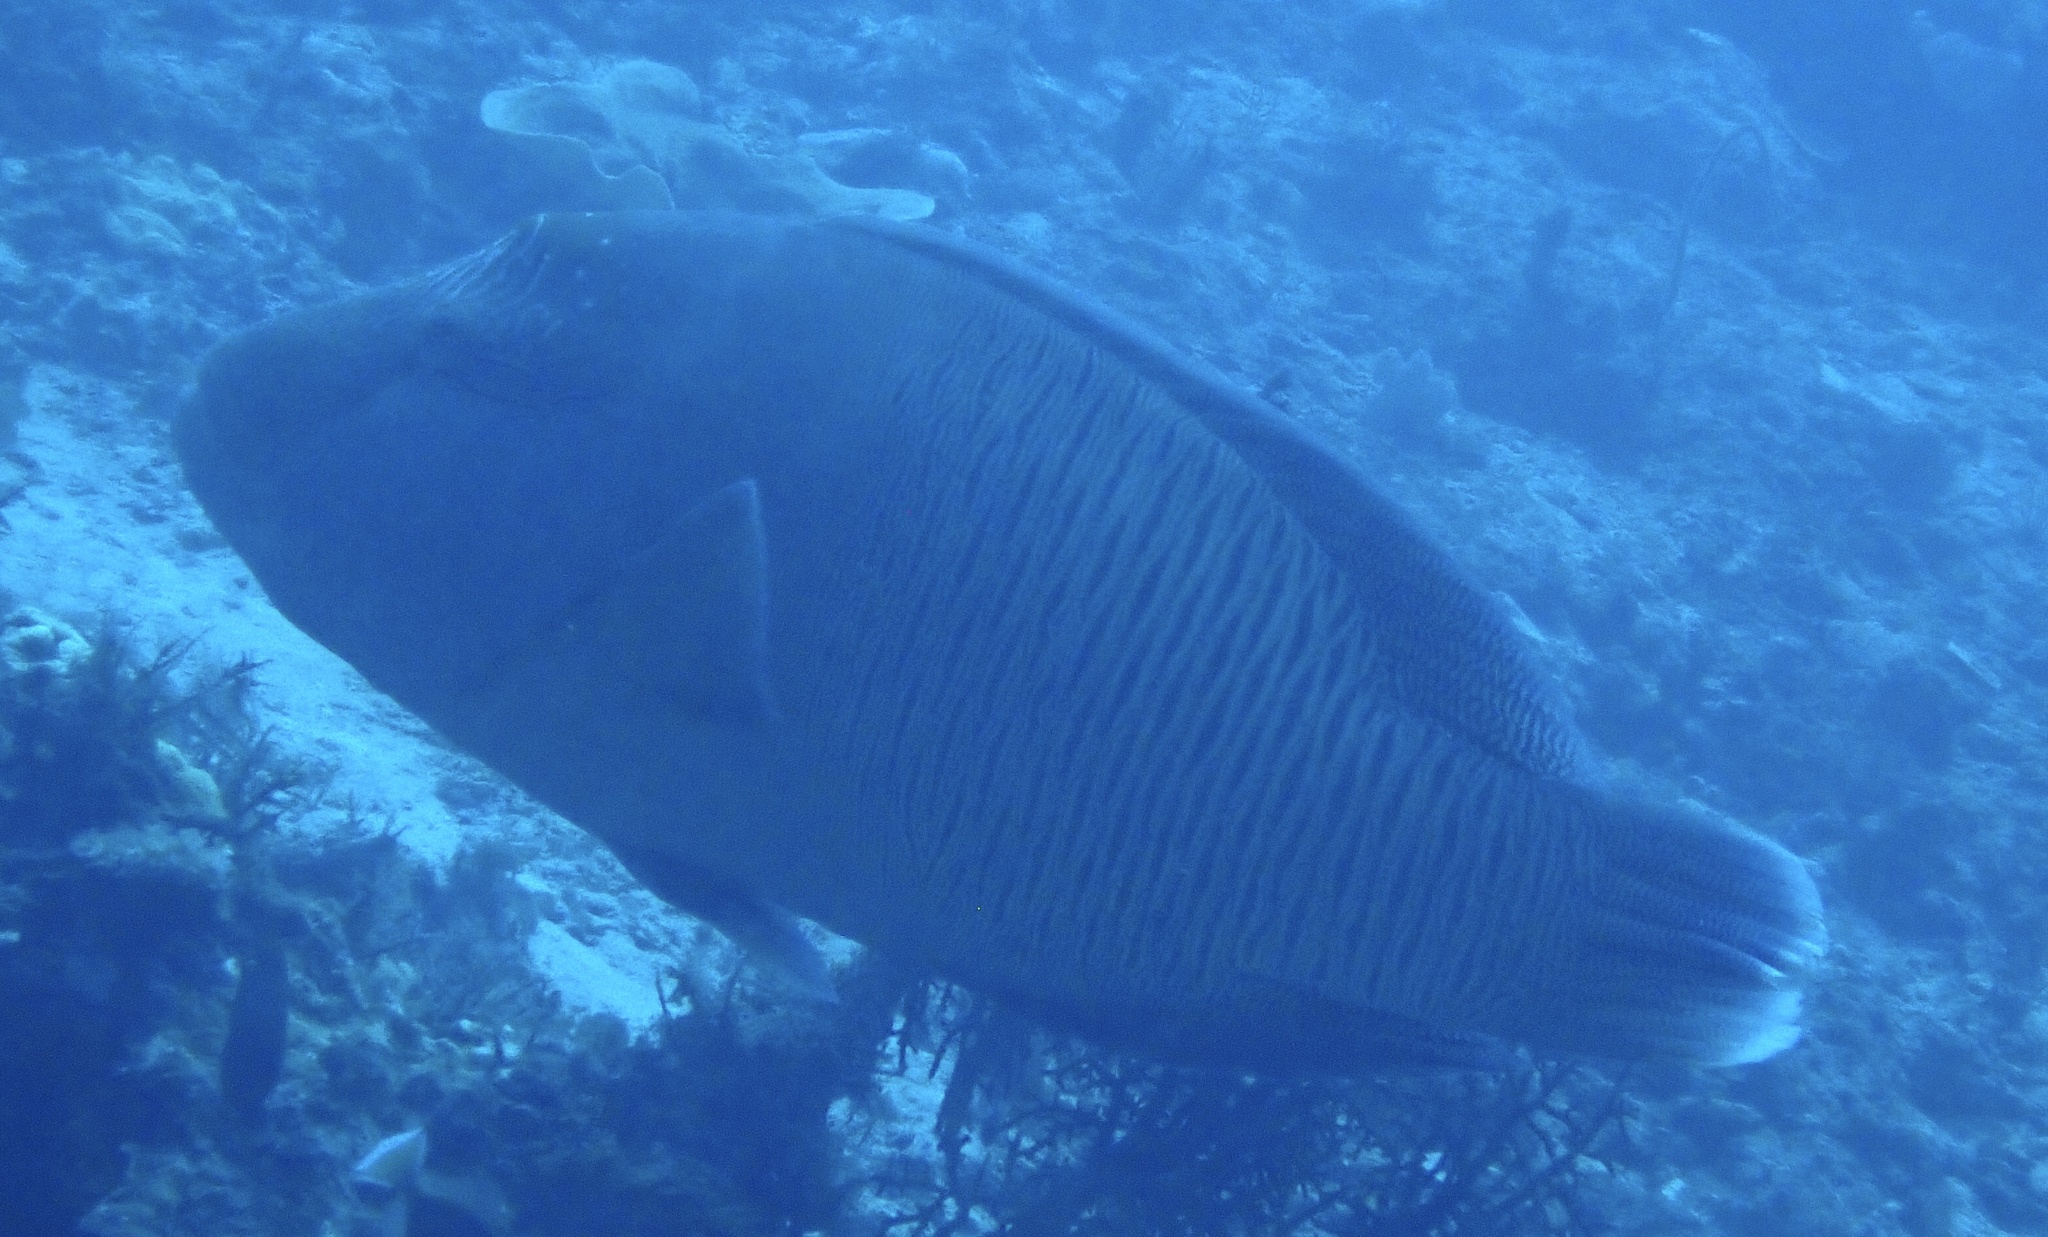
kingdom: Animalia
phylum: Chordata
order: Perciformes
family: Labridae
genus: Cheilinus
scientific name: Cheilinus undulatus
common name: Humphead wrasse
